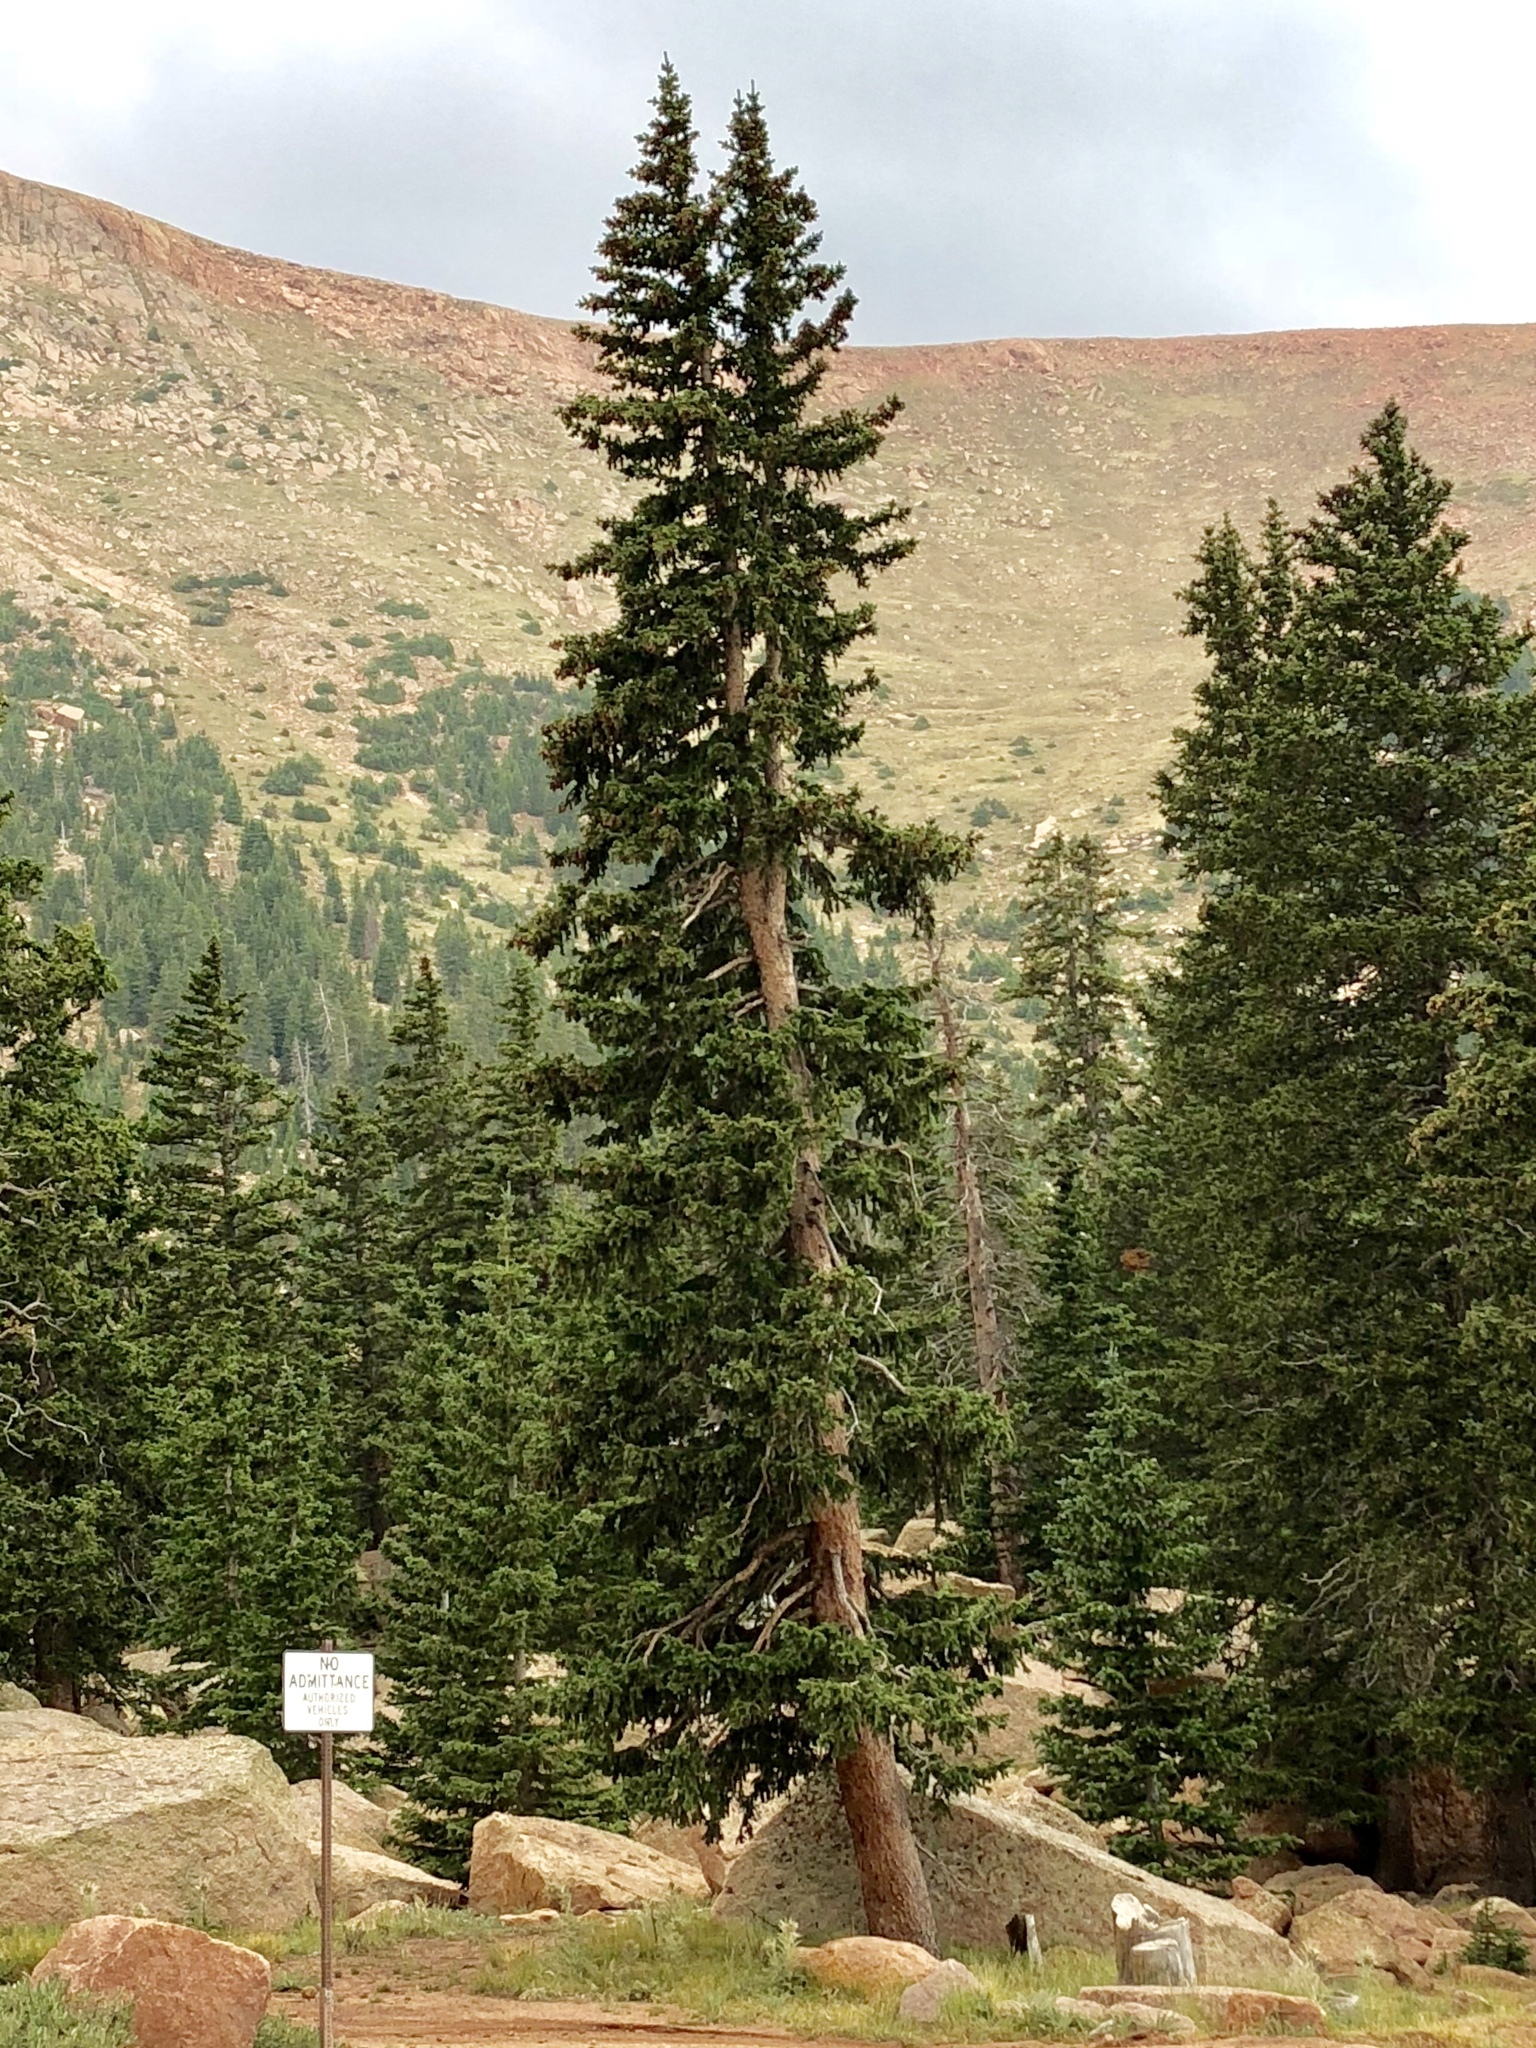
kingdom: Plantae
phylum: Tracheophyta
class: Pinopsida
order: Pinales
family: Pinaceae
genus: Picea
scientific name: Picea engelmannii
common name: Engelmann spruce
